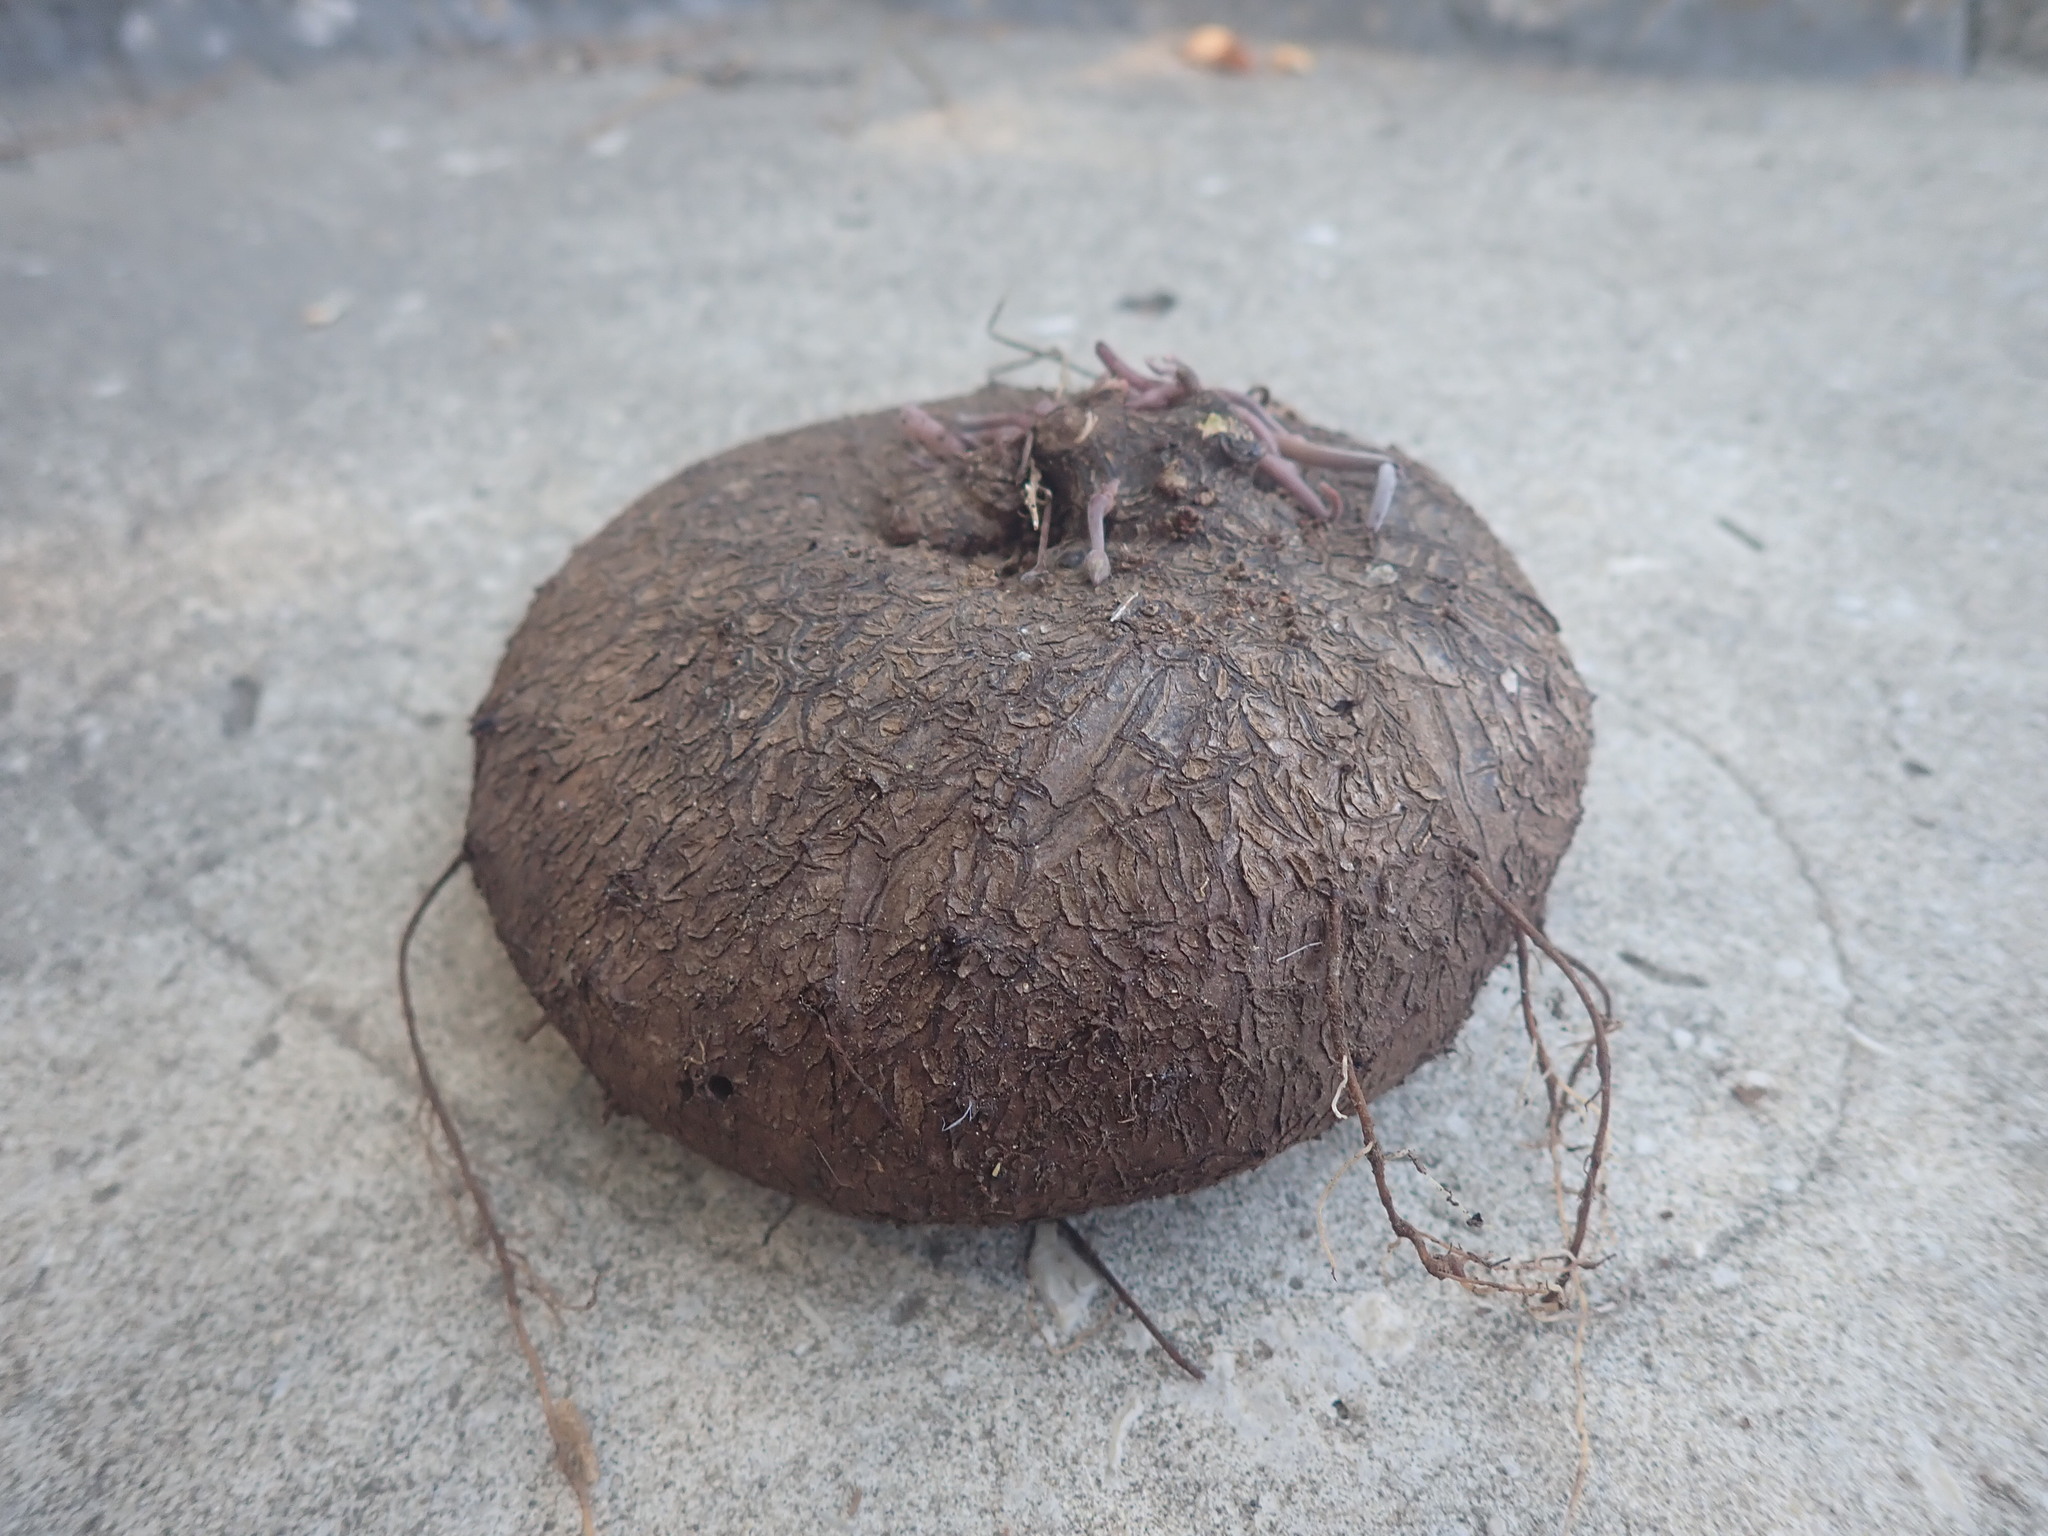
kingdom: Plantae
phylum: Tracheophyta
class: Magnoliopsida
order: Ericales
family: Primulaceae
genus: Cyclamen
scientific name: Cyclamen hederifolium
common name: Sowbread
